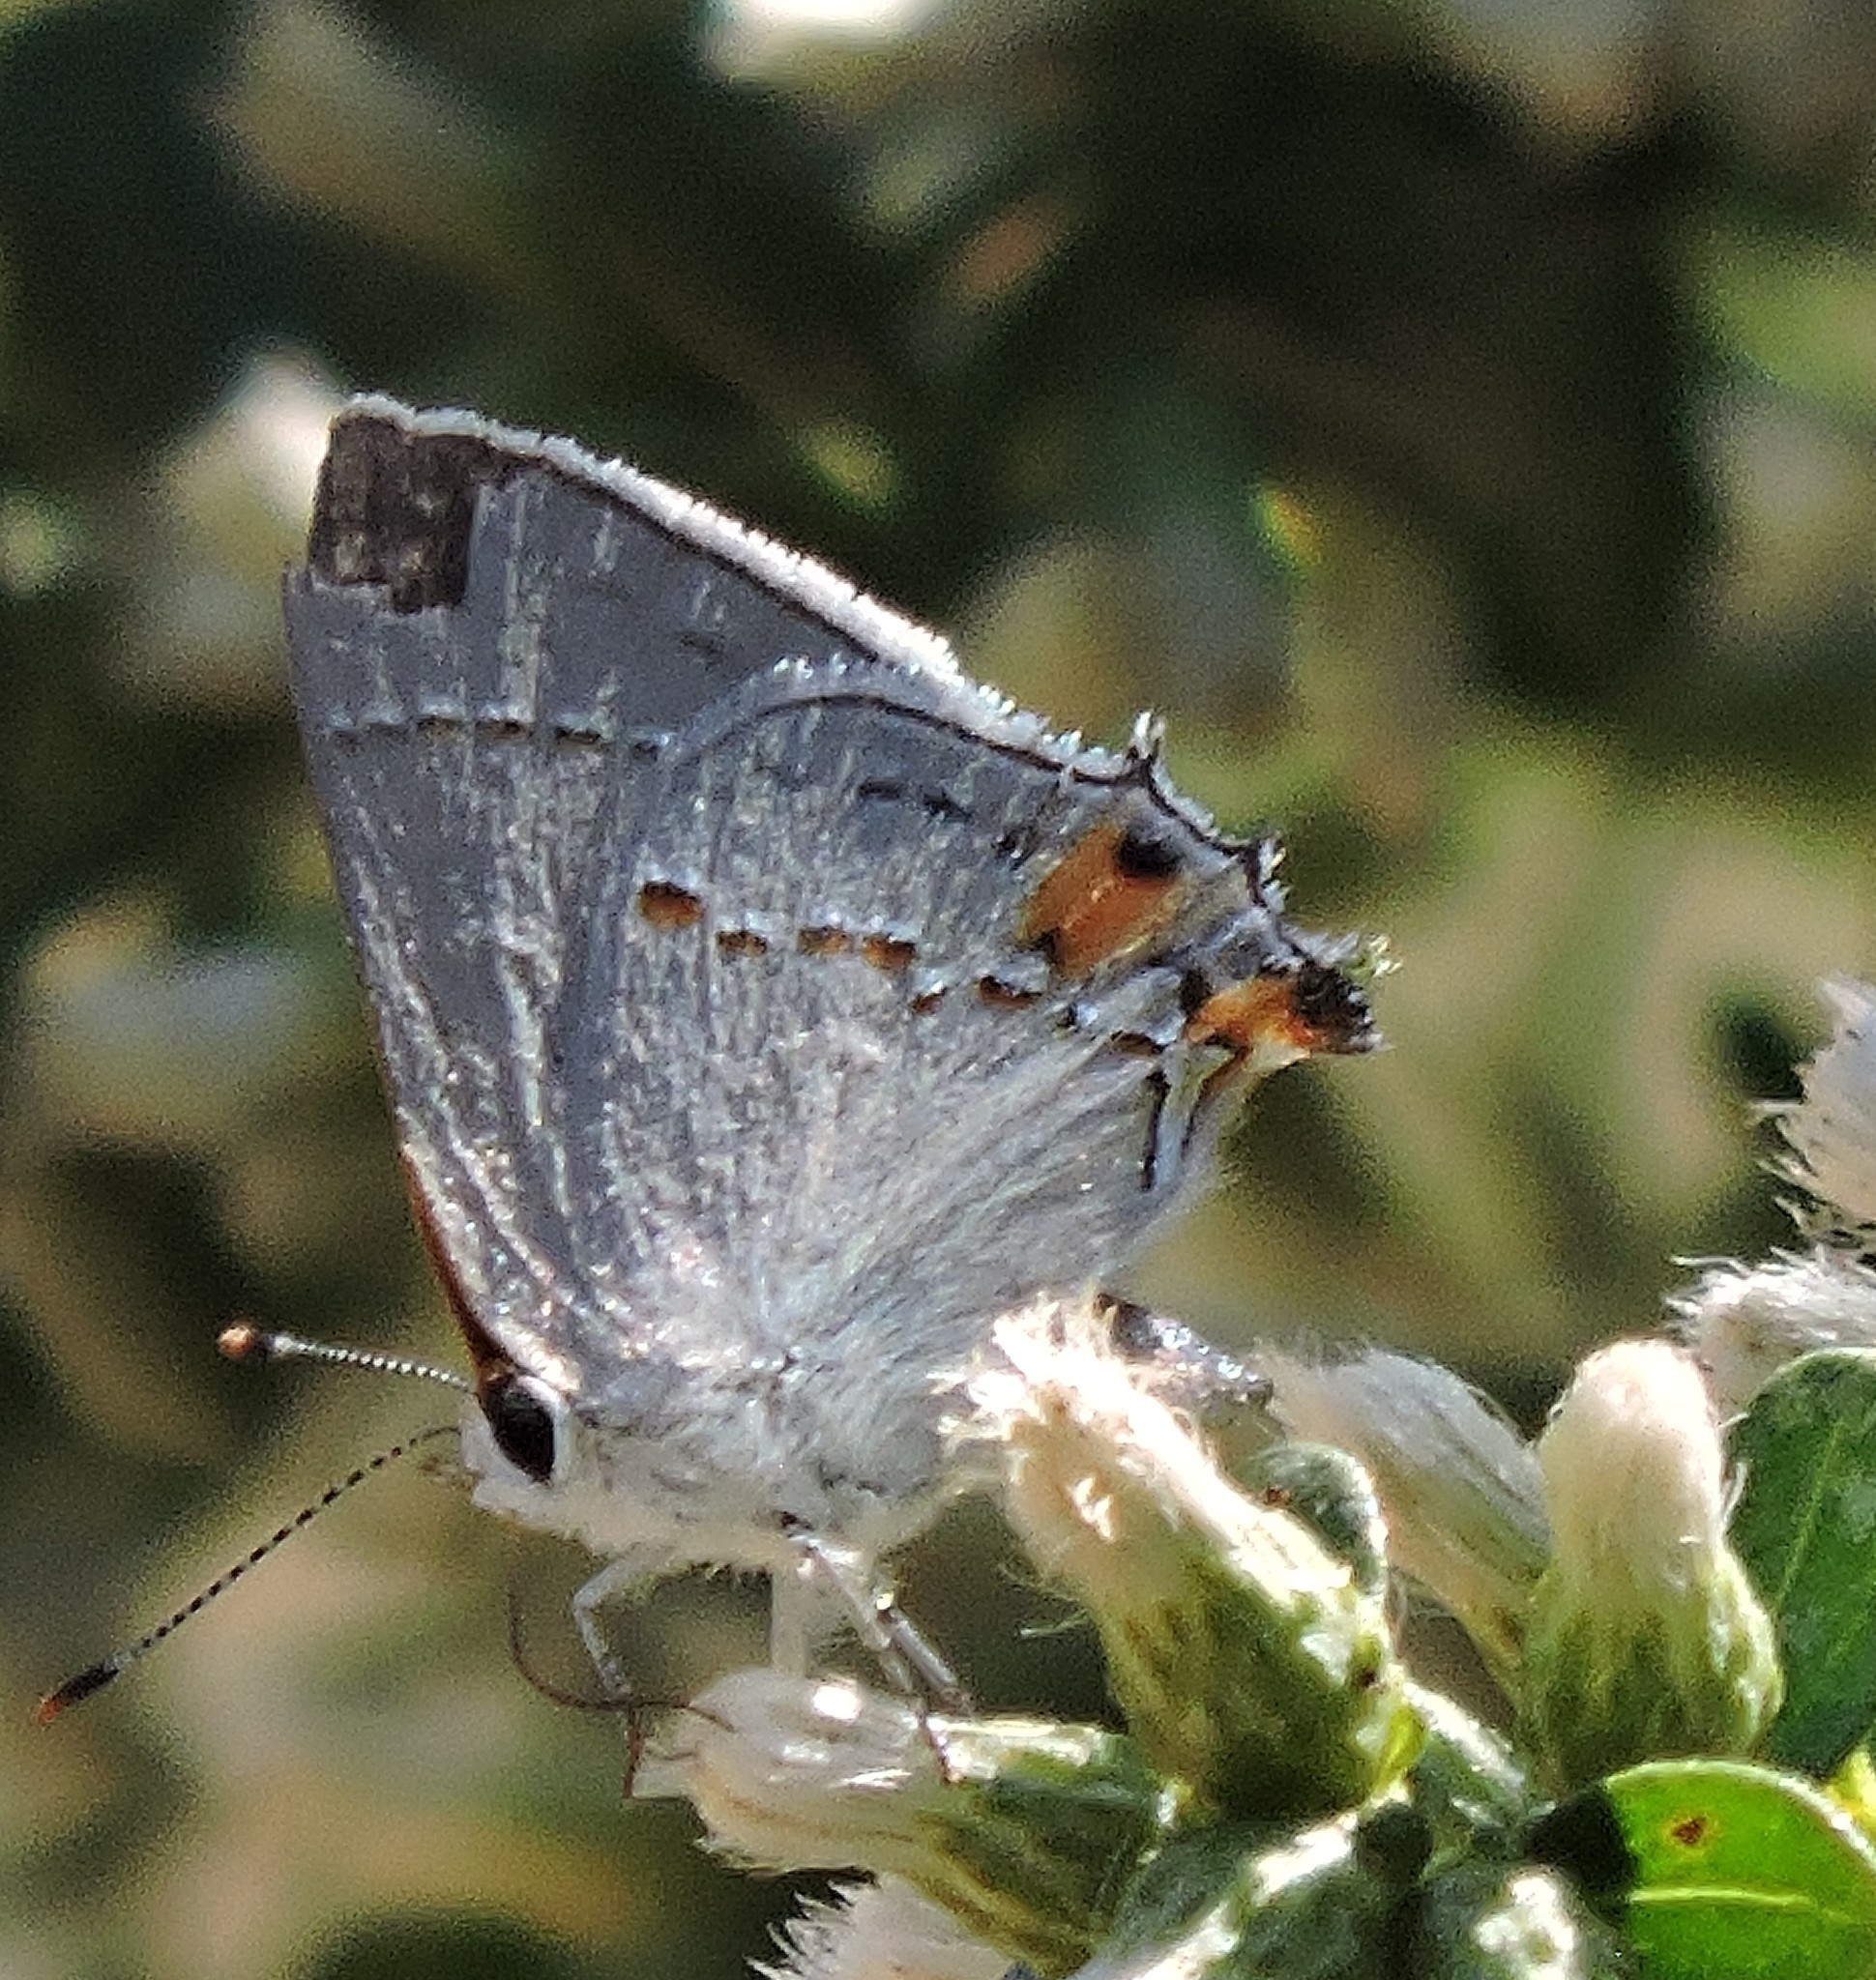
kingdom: Animalia
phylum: Arthropoda
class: Insecta
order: Lepidoptera
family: Lycaenidae
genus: Strymon
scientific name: Strymon melinus
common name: Gray hairstreak
